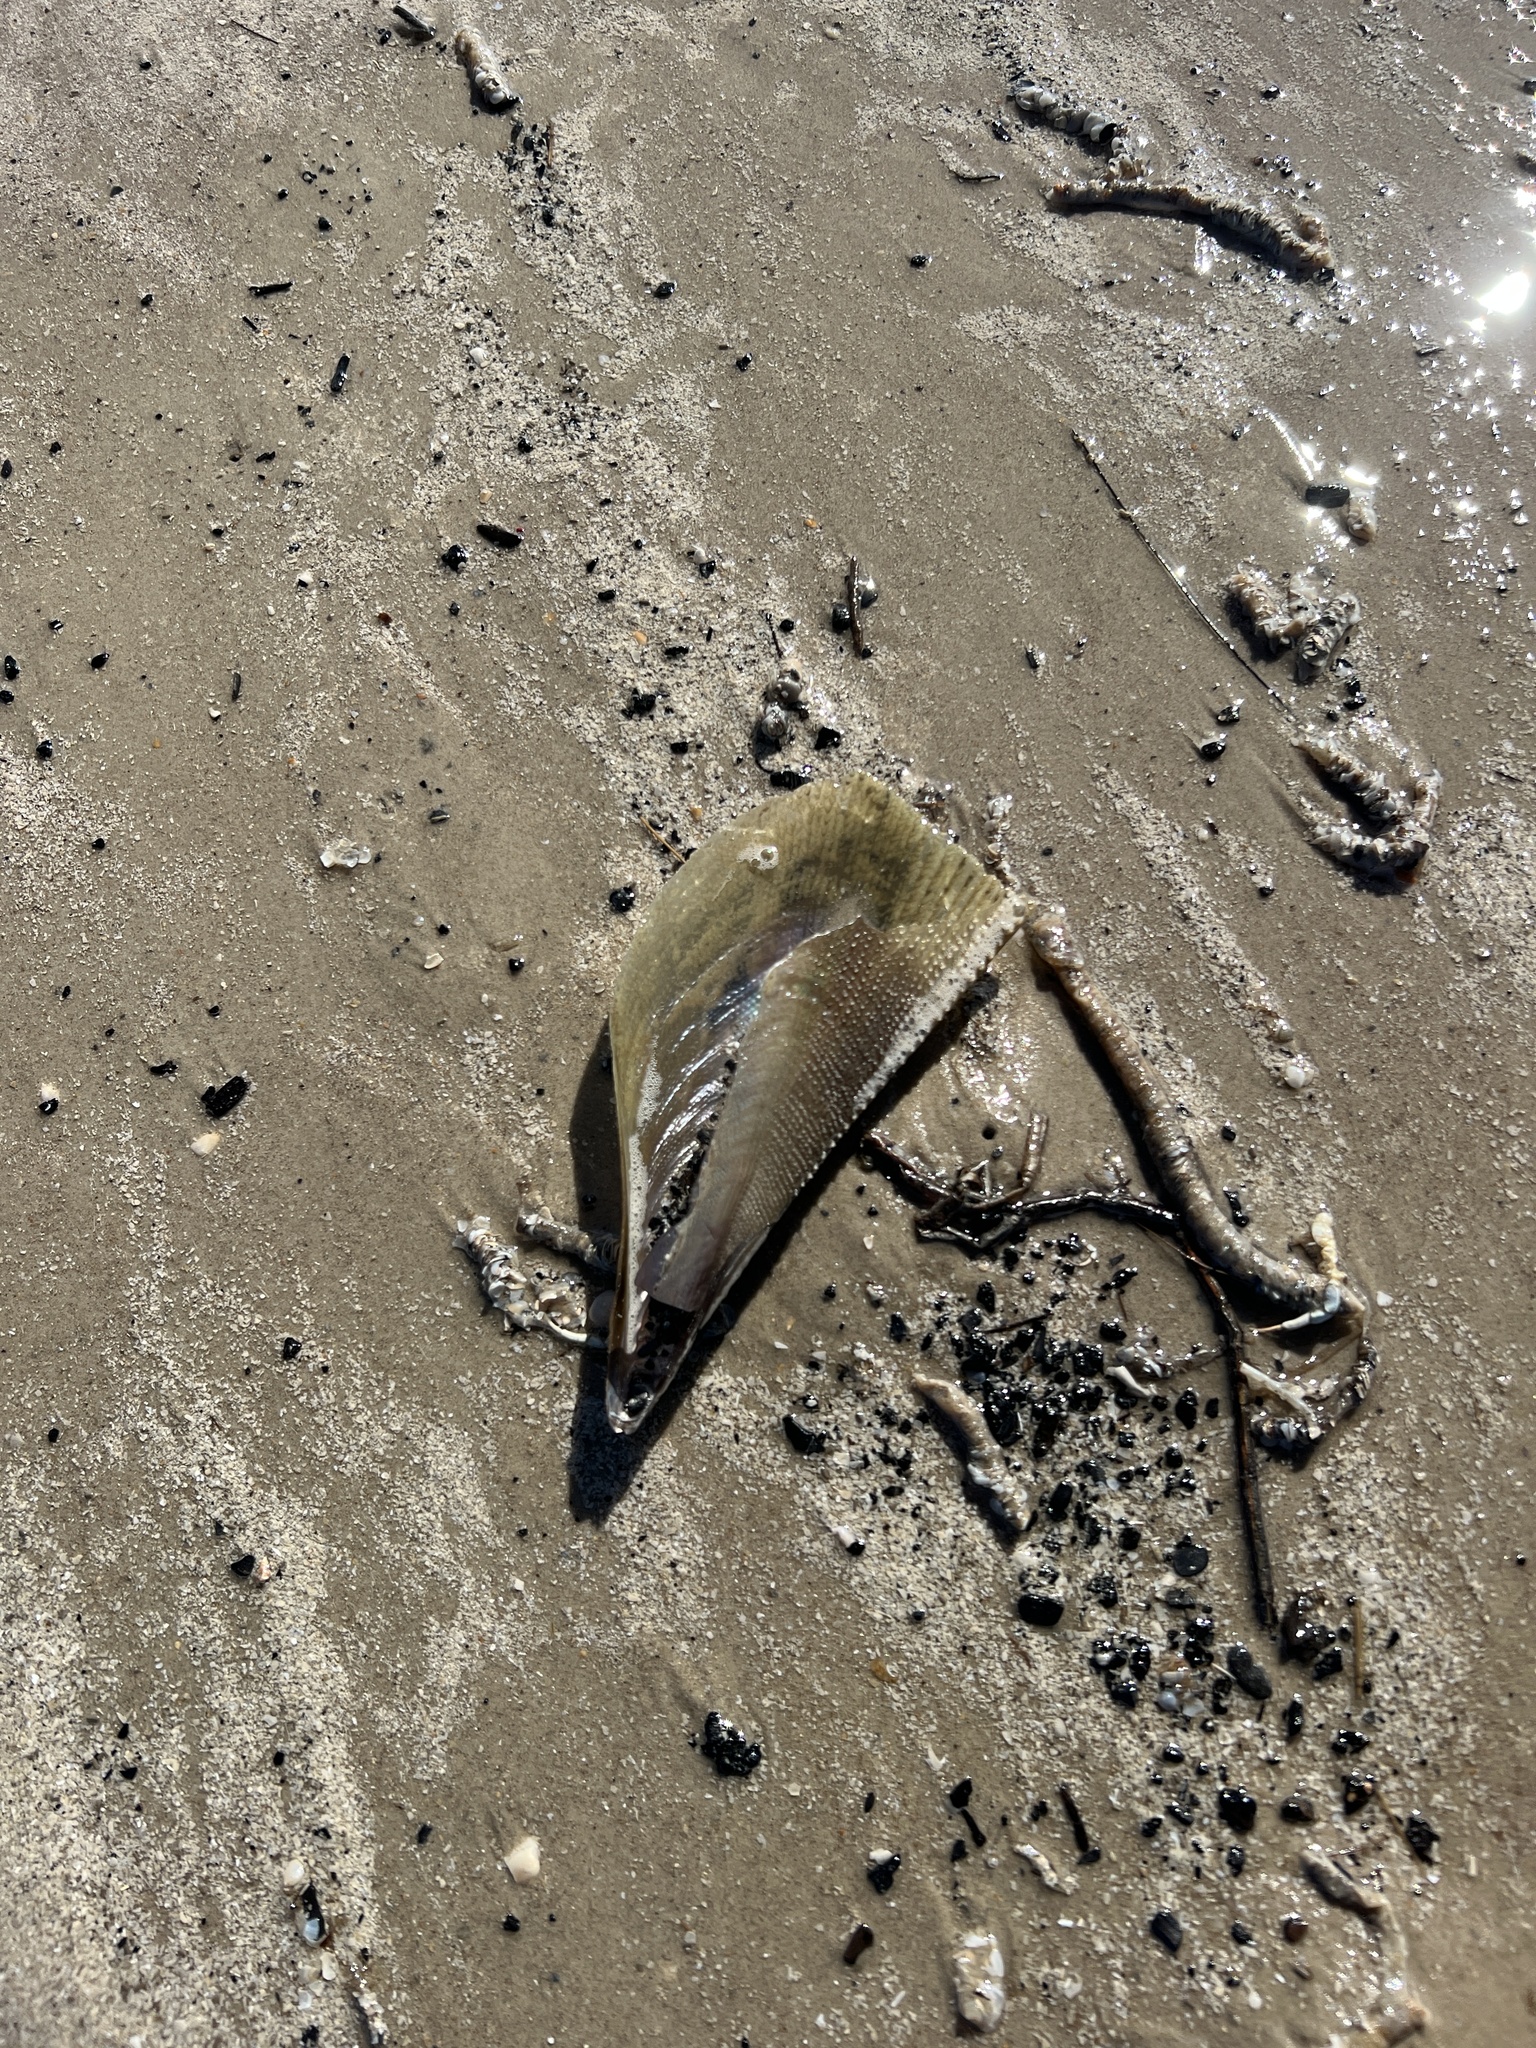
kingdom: Animalia
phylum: Mollusca
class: Bivalvia
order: Ostreida
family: Pinnidae
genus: Atrina
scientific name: Atrina serrata
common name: Saw-toothed penshell
